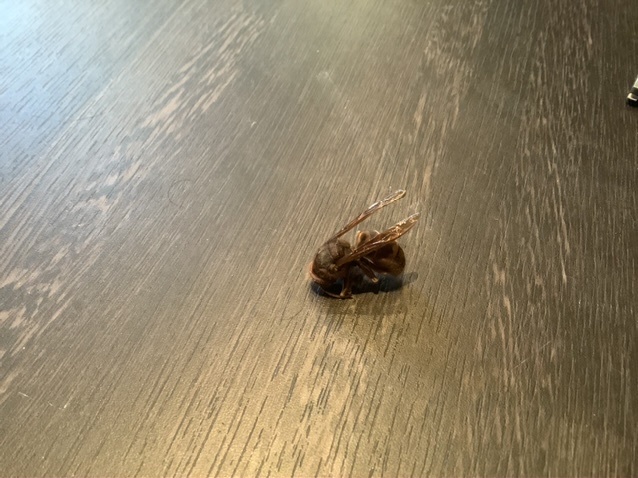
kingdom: Animalia
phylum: Arthropoda
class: Insecta
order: Hymenoptera
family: Vespidae
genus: Vespa
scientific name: Vespa crabro
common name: Hornet
